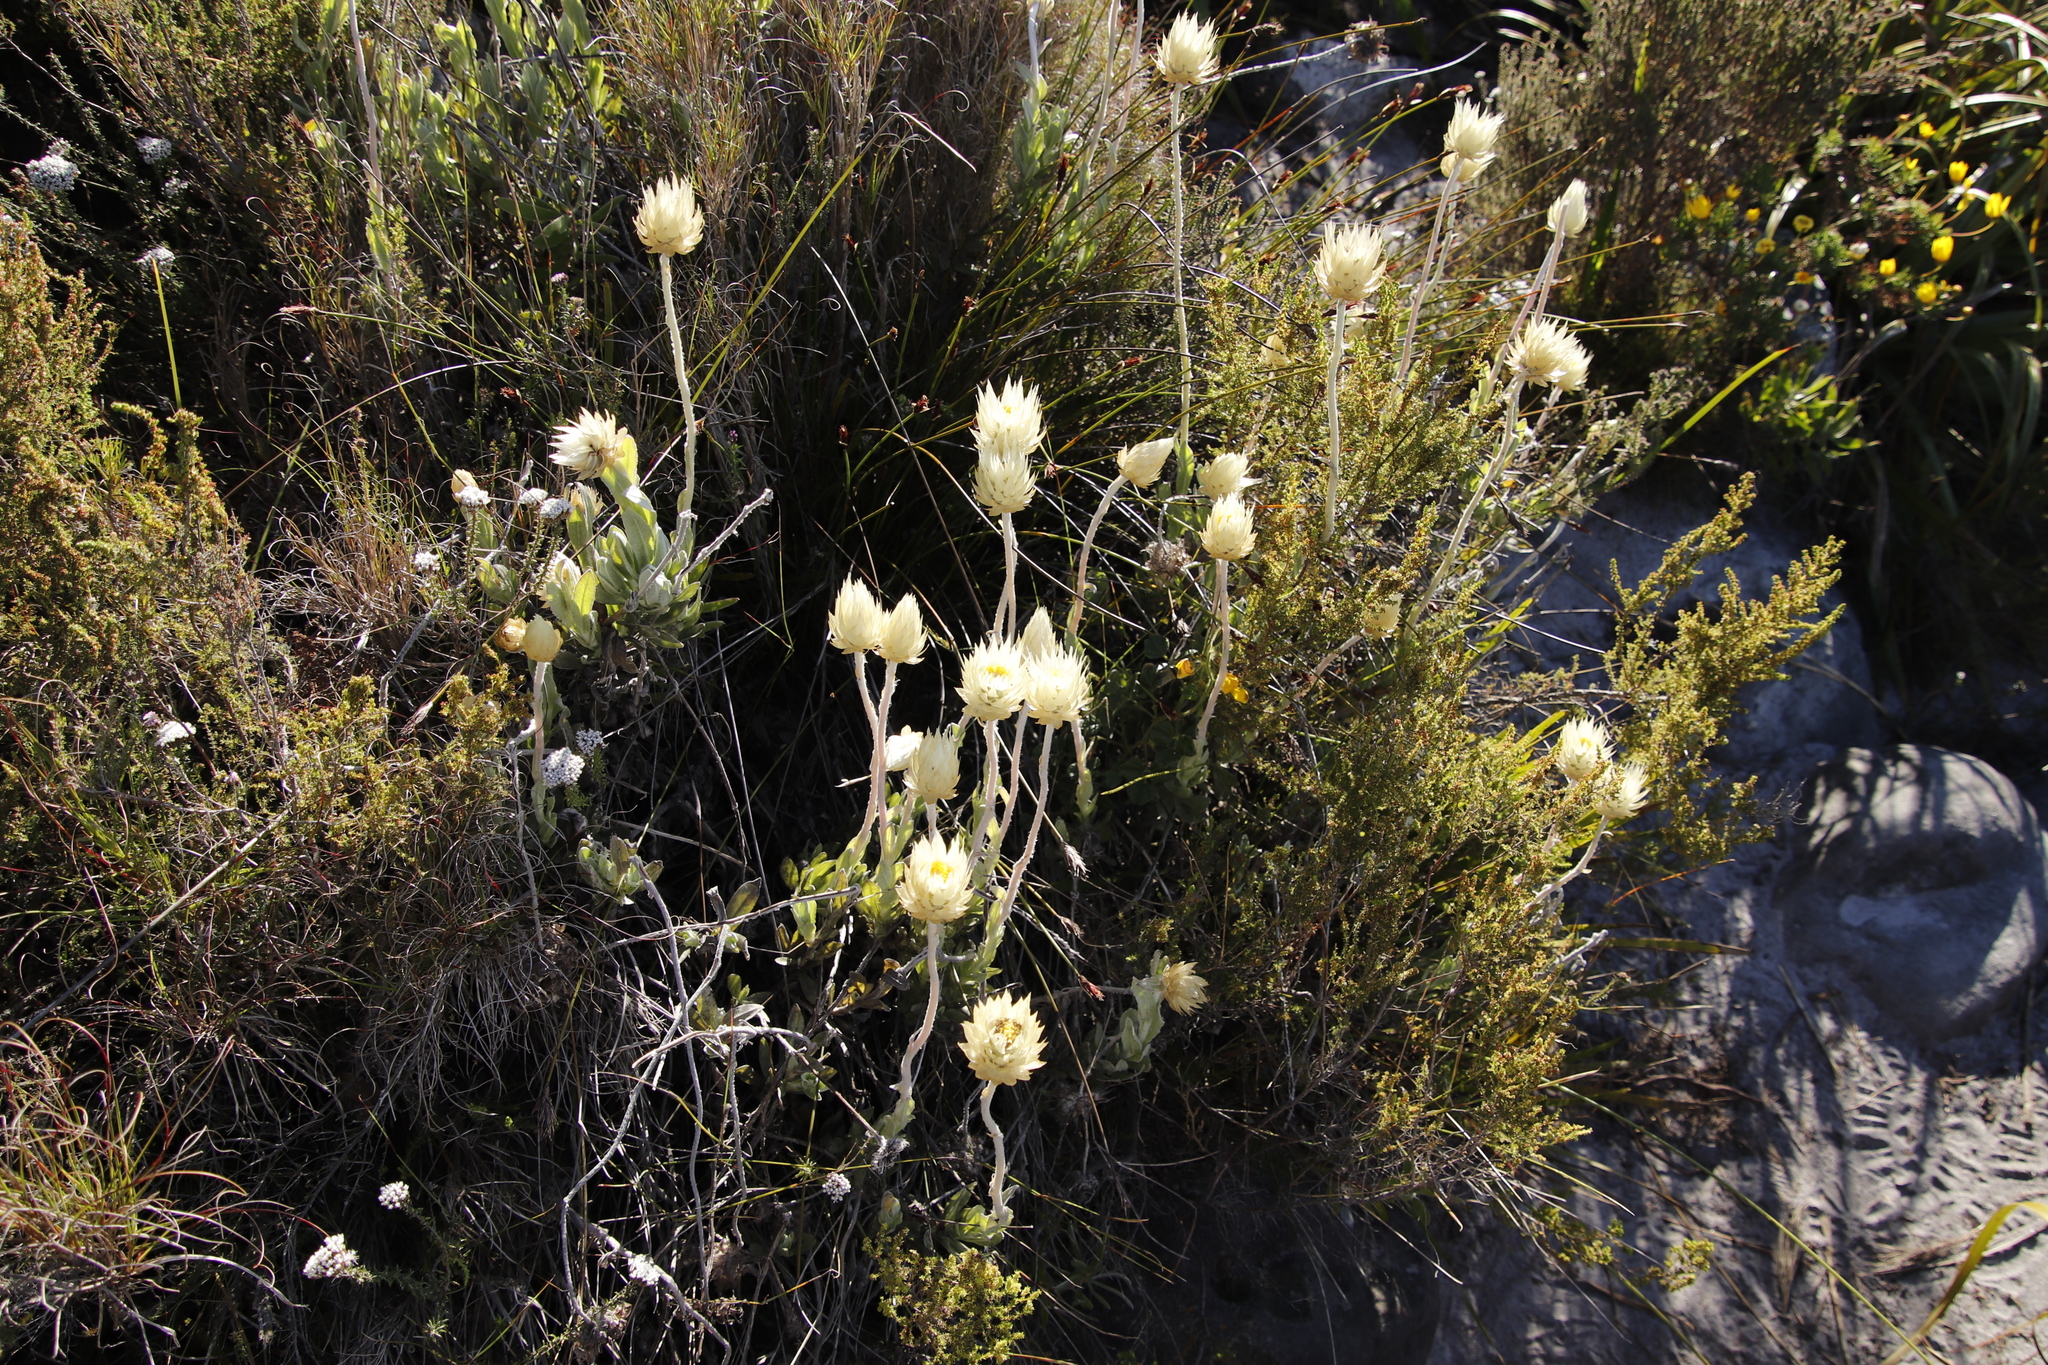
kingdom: Plantae
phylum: Tracheophyta
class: Magnoliopsida
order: Asterales
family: Asteraceae
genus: Syncarpha
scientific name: Syncarpha speciosissima
